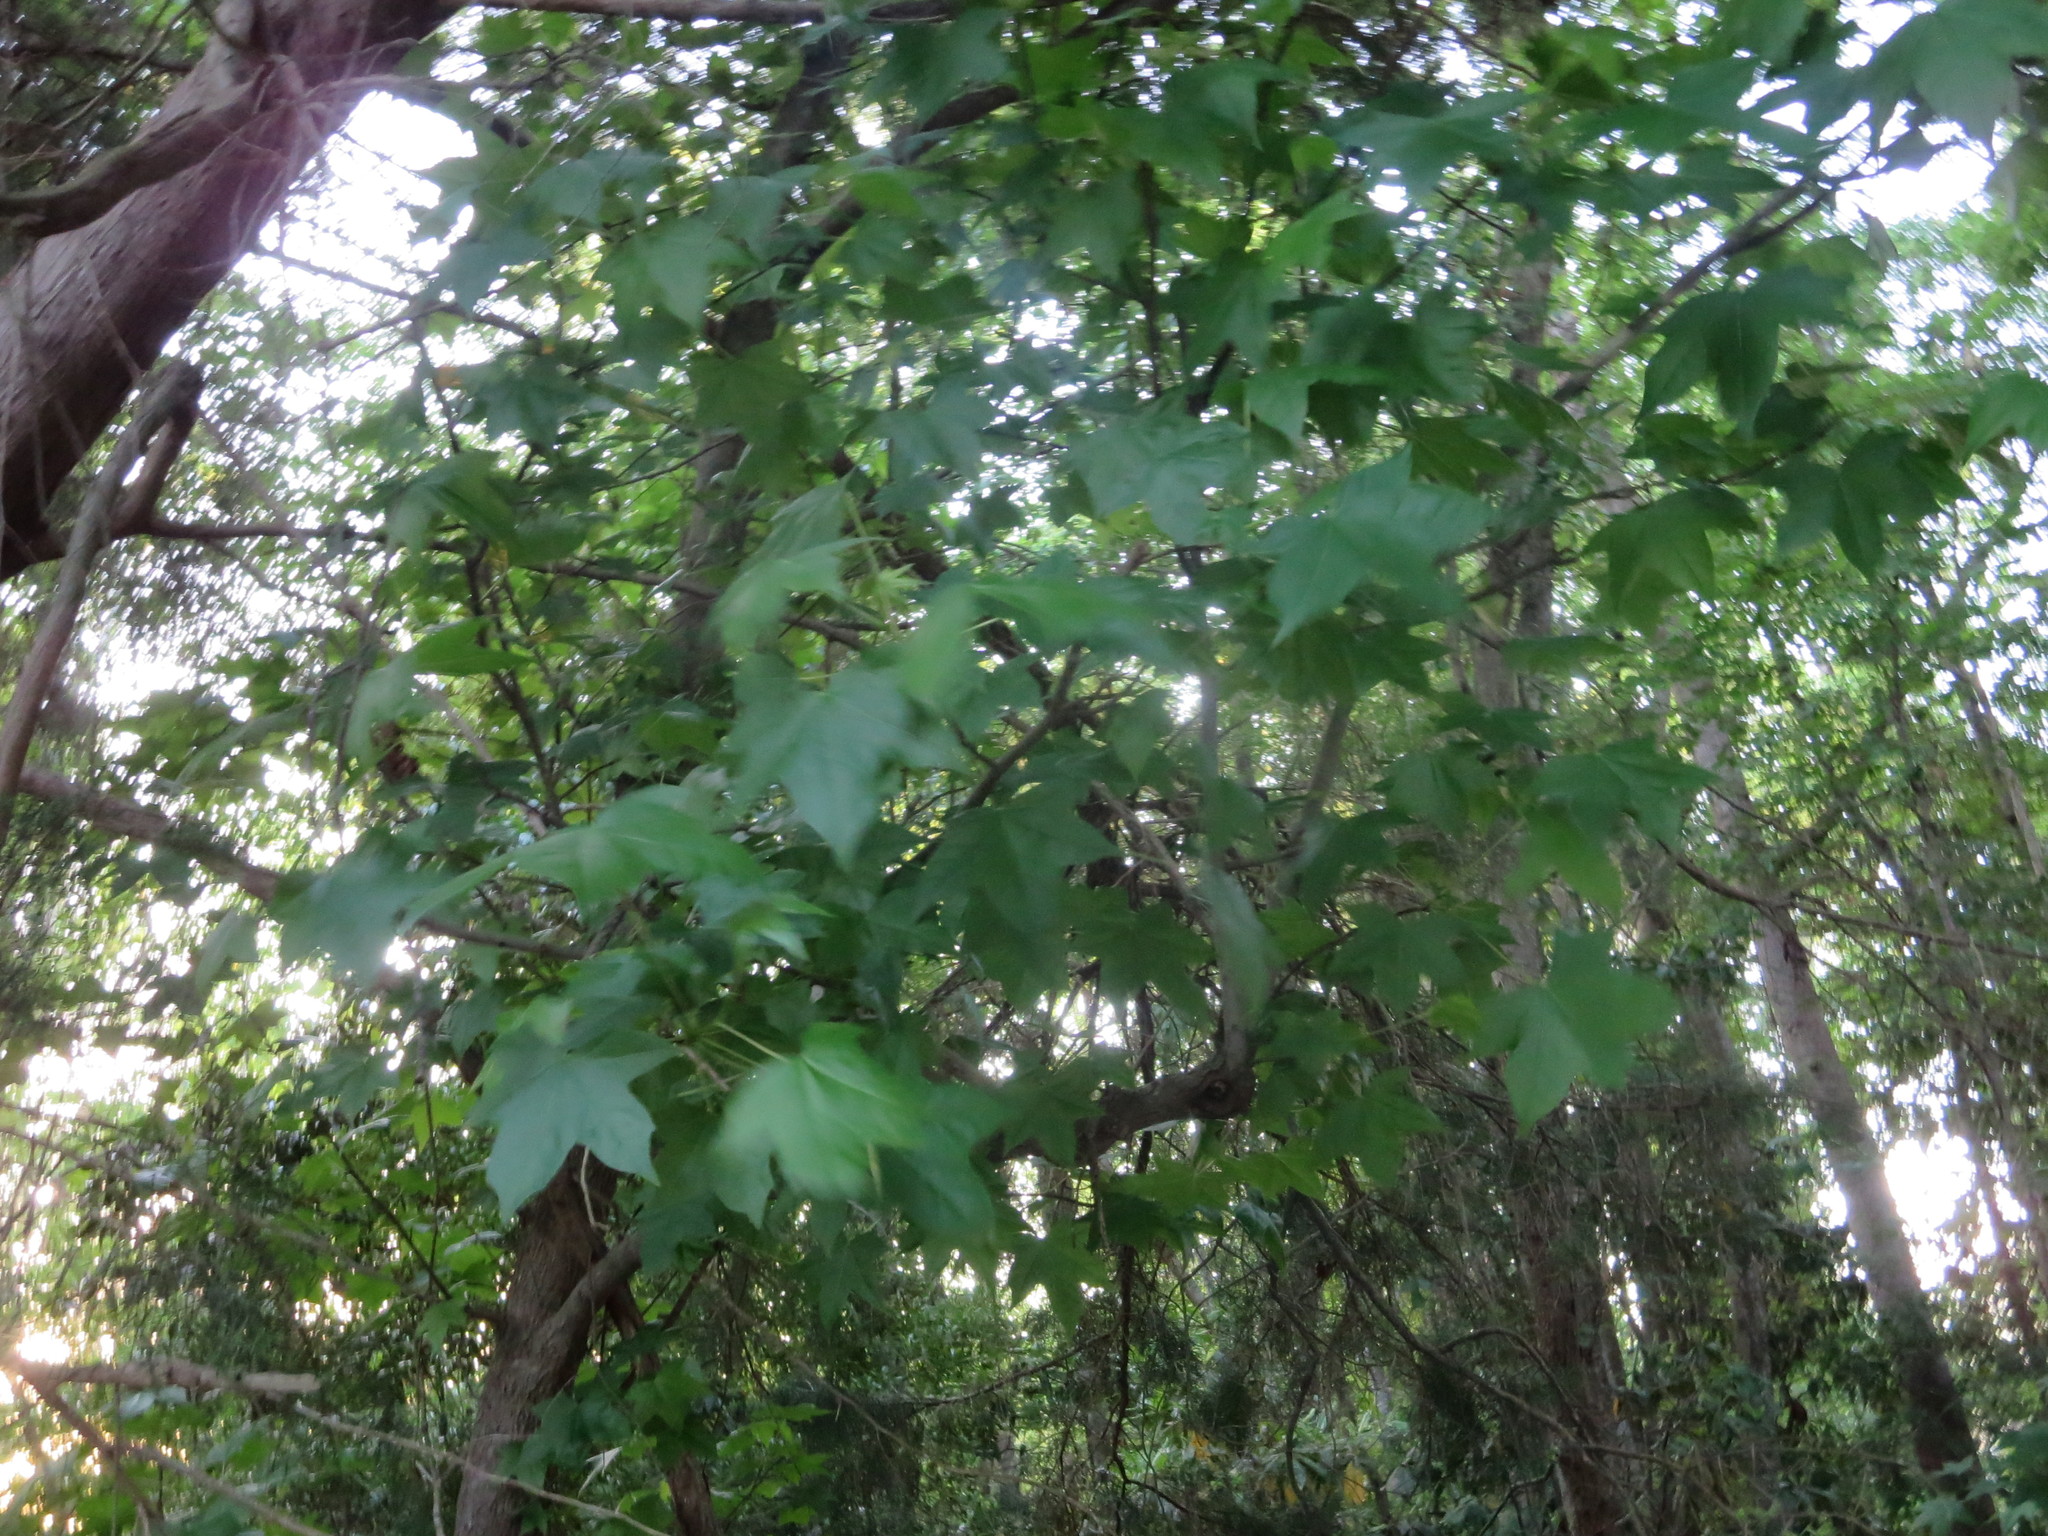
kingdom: Plantae
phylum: Tracheophyta
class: Magnoliopsida
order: Saxifragales
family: Altingiaceae
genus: Liquidambar
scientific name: Liquidambar styraciflua
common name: Sweet gum
